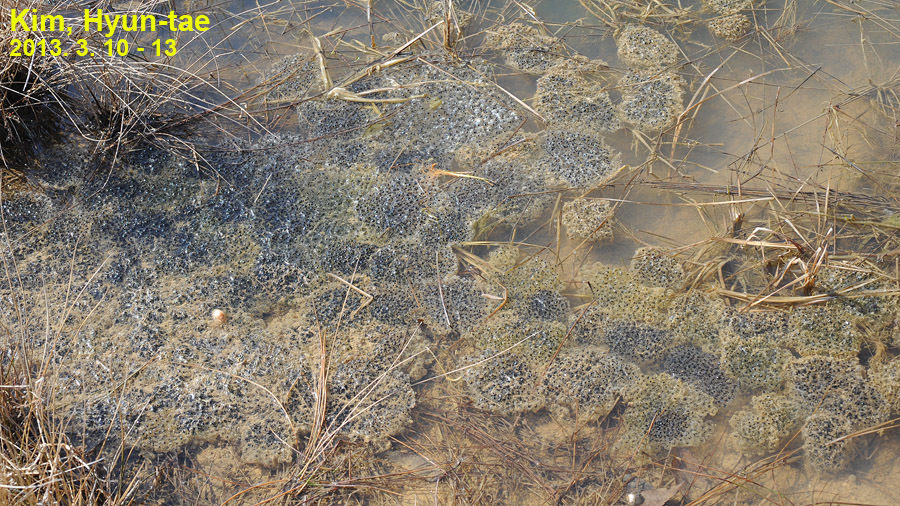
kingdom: Animalia
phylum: Chordata
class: Amphibia
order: Anura
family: Ranidae
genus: Rana
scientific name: Rana coreana
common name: Korean brown frog
